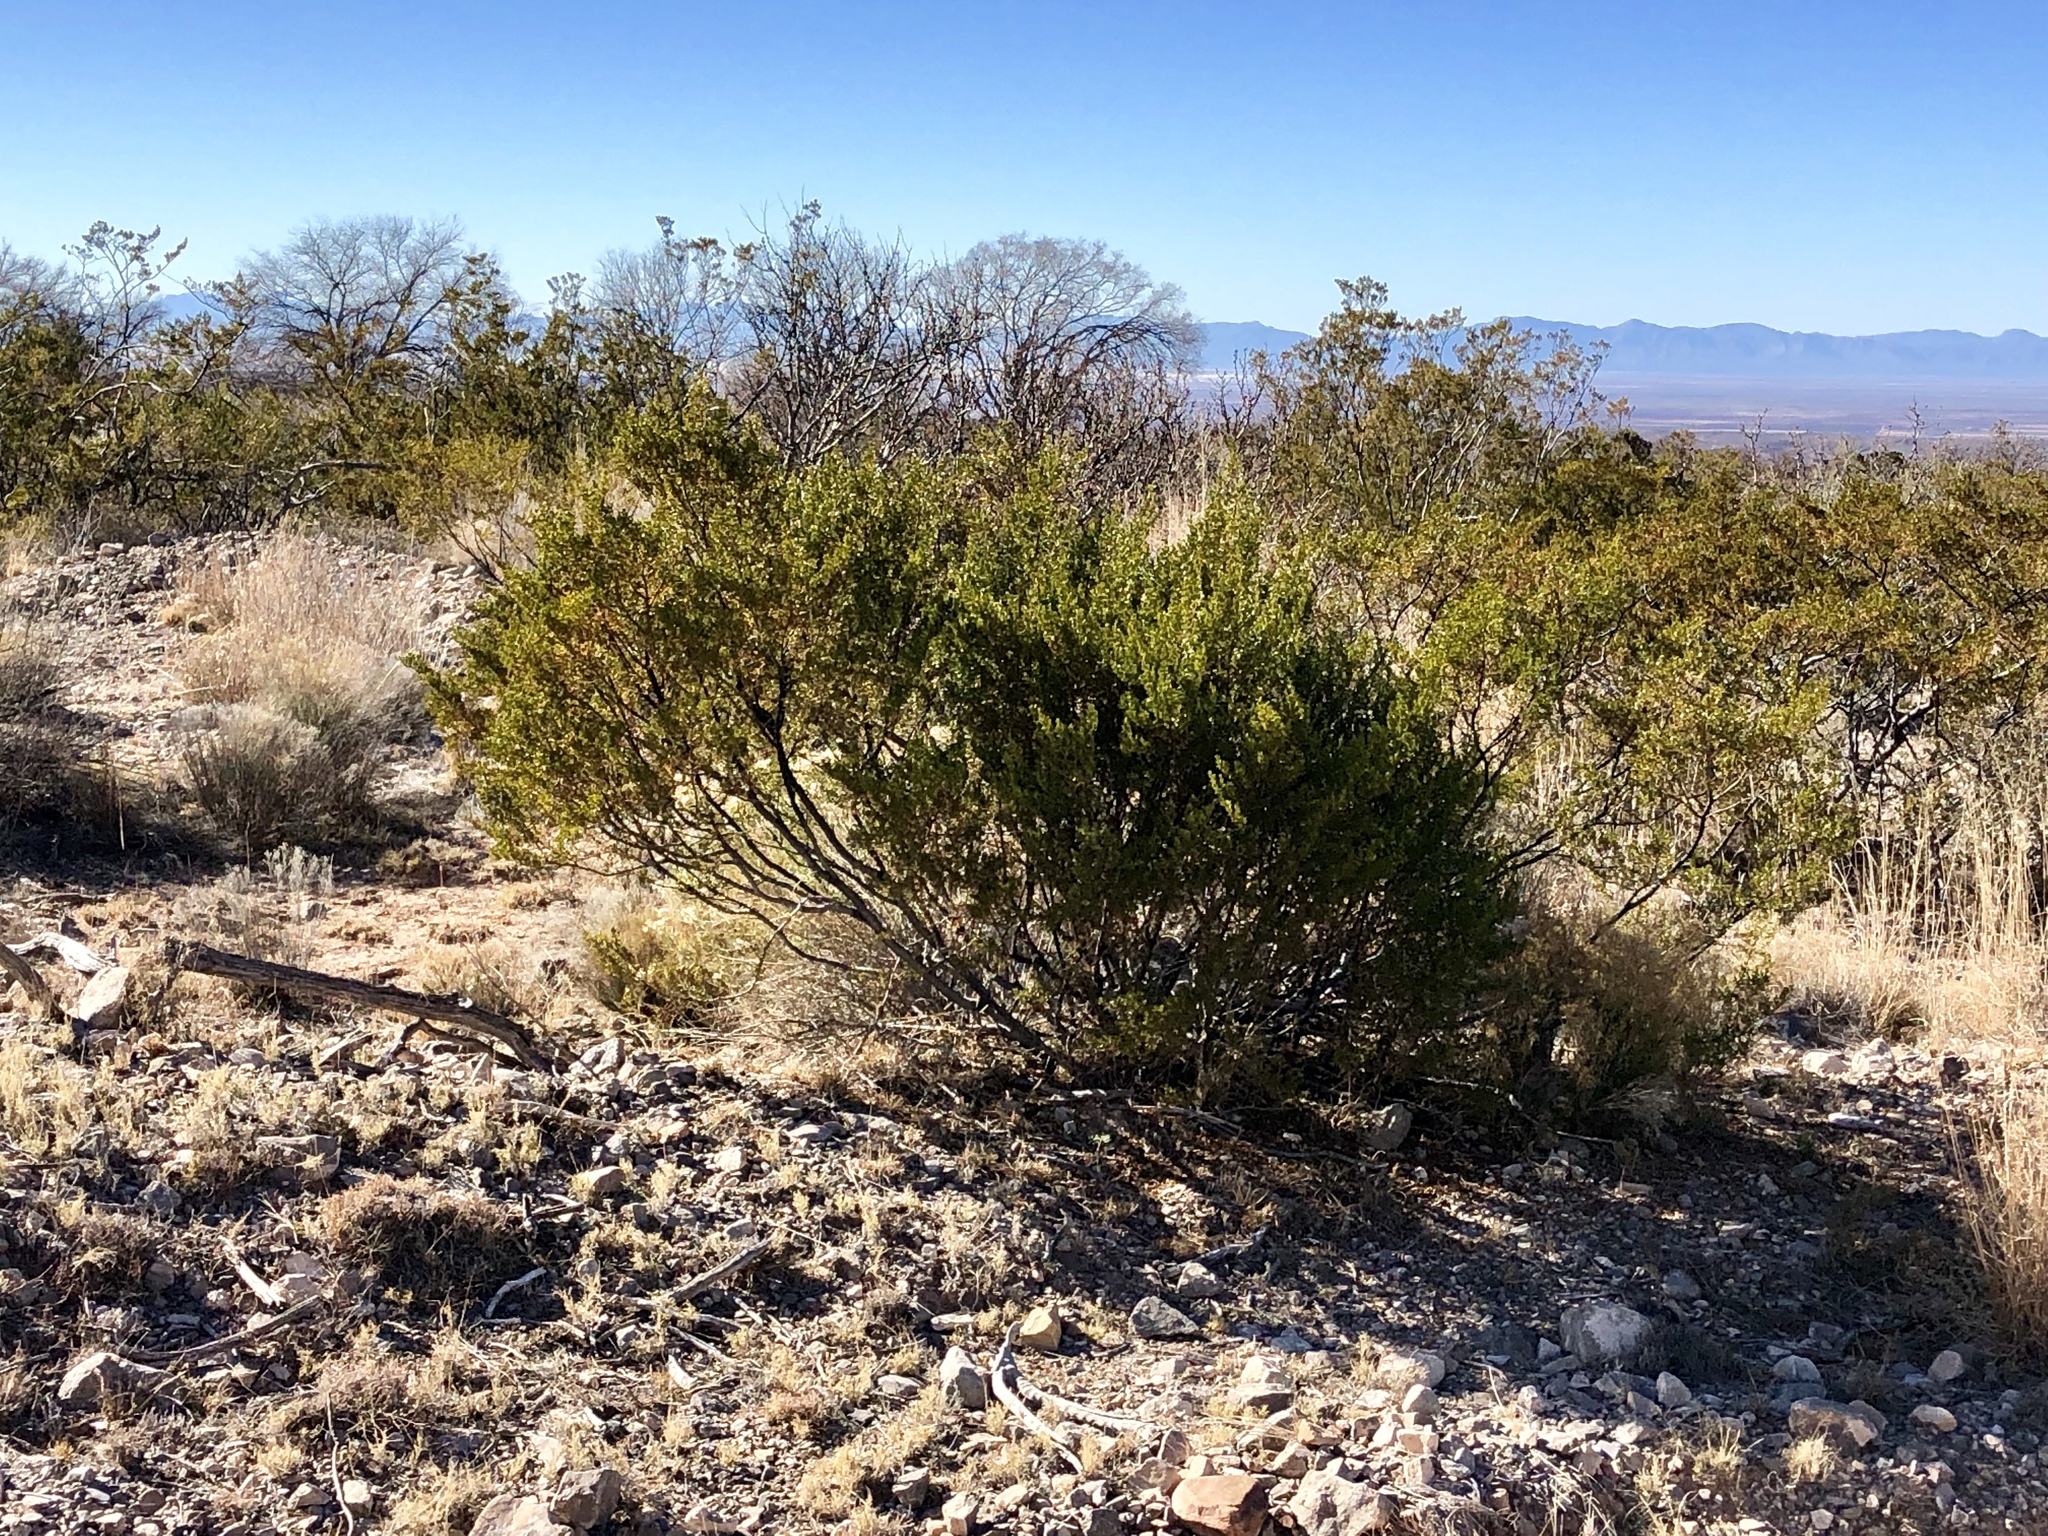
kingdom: Plantae
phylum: Tracheophyta
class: Magnoliopsida
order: Zygophyllales
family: Zygophyllaceae
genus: Larrea
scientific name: Larrea tridentata
